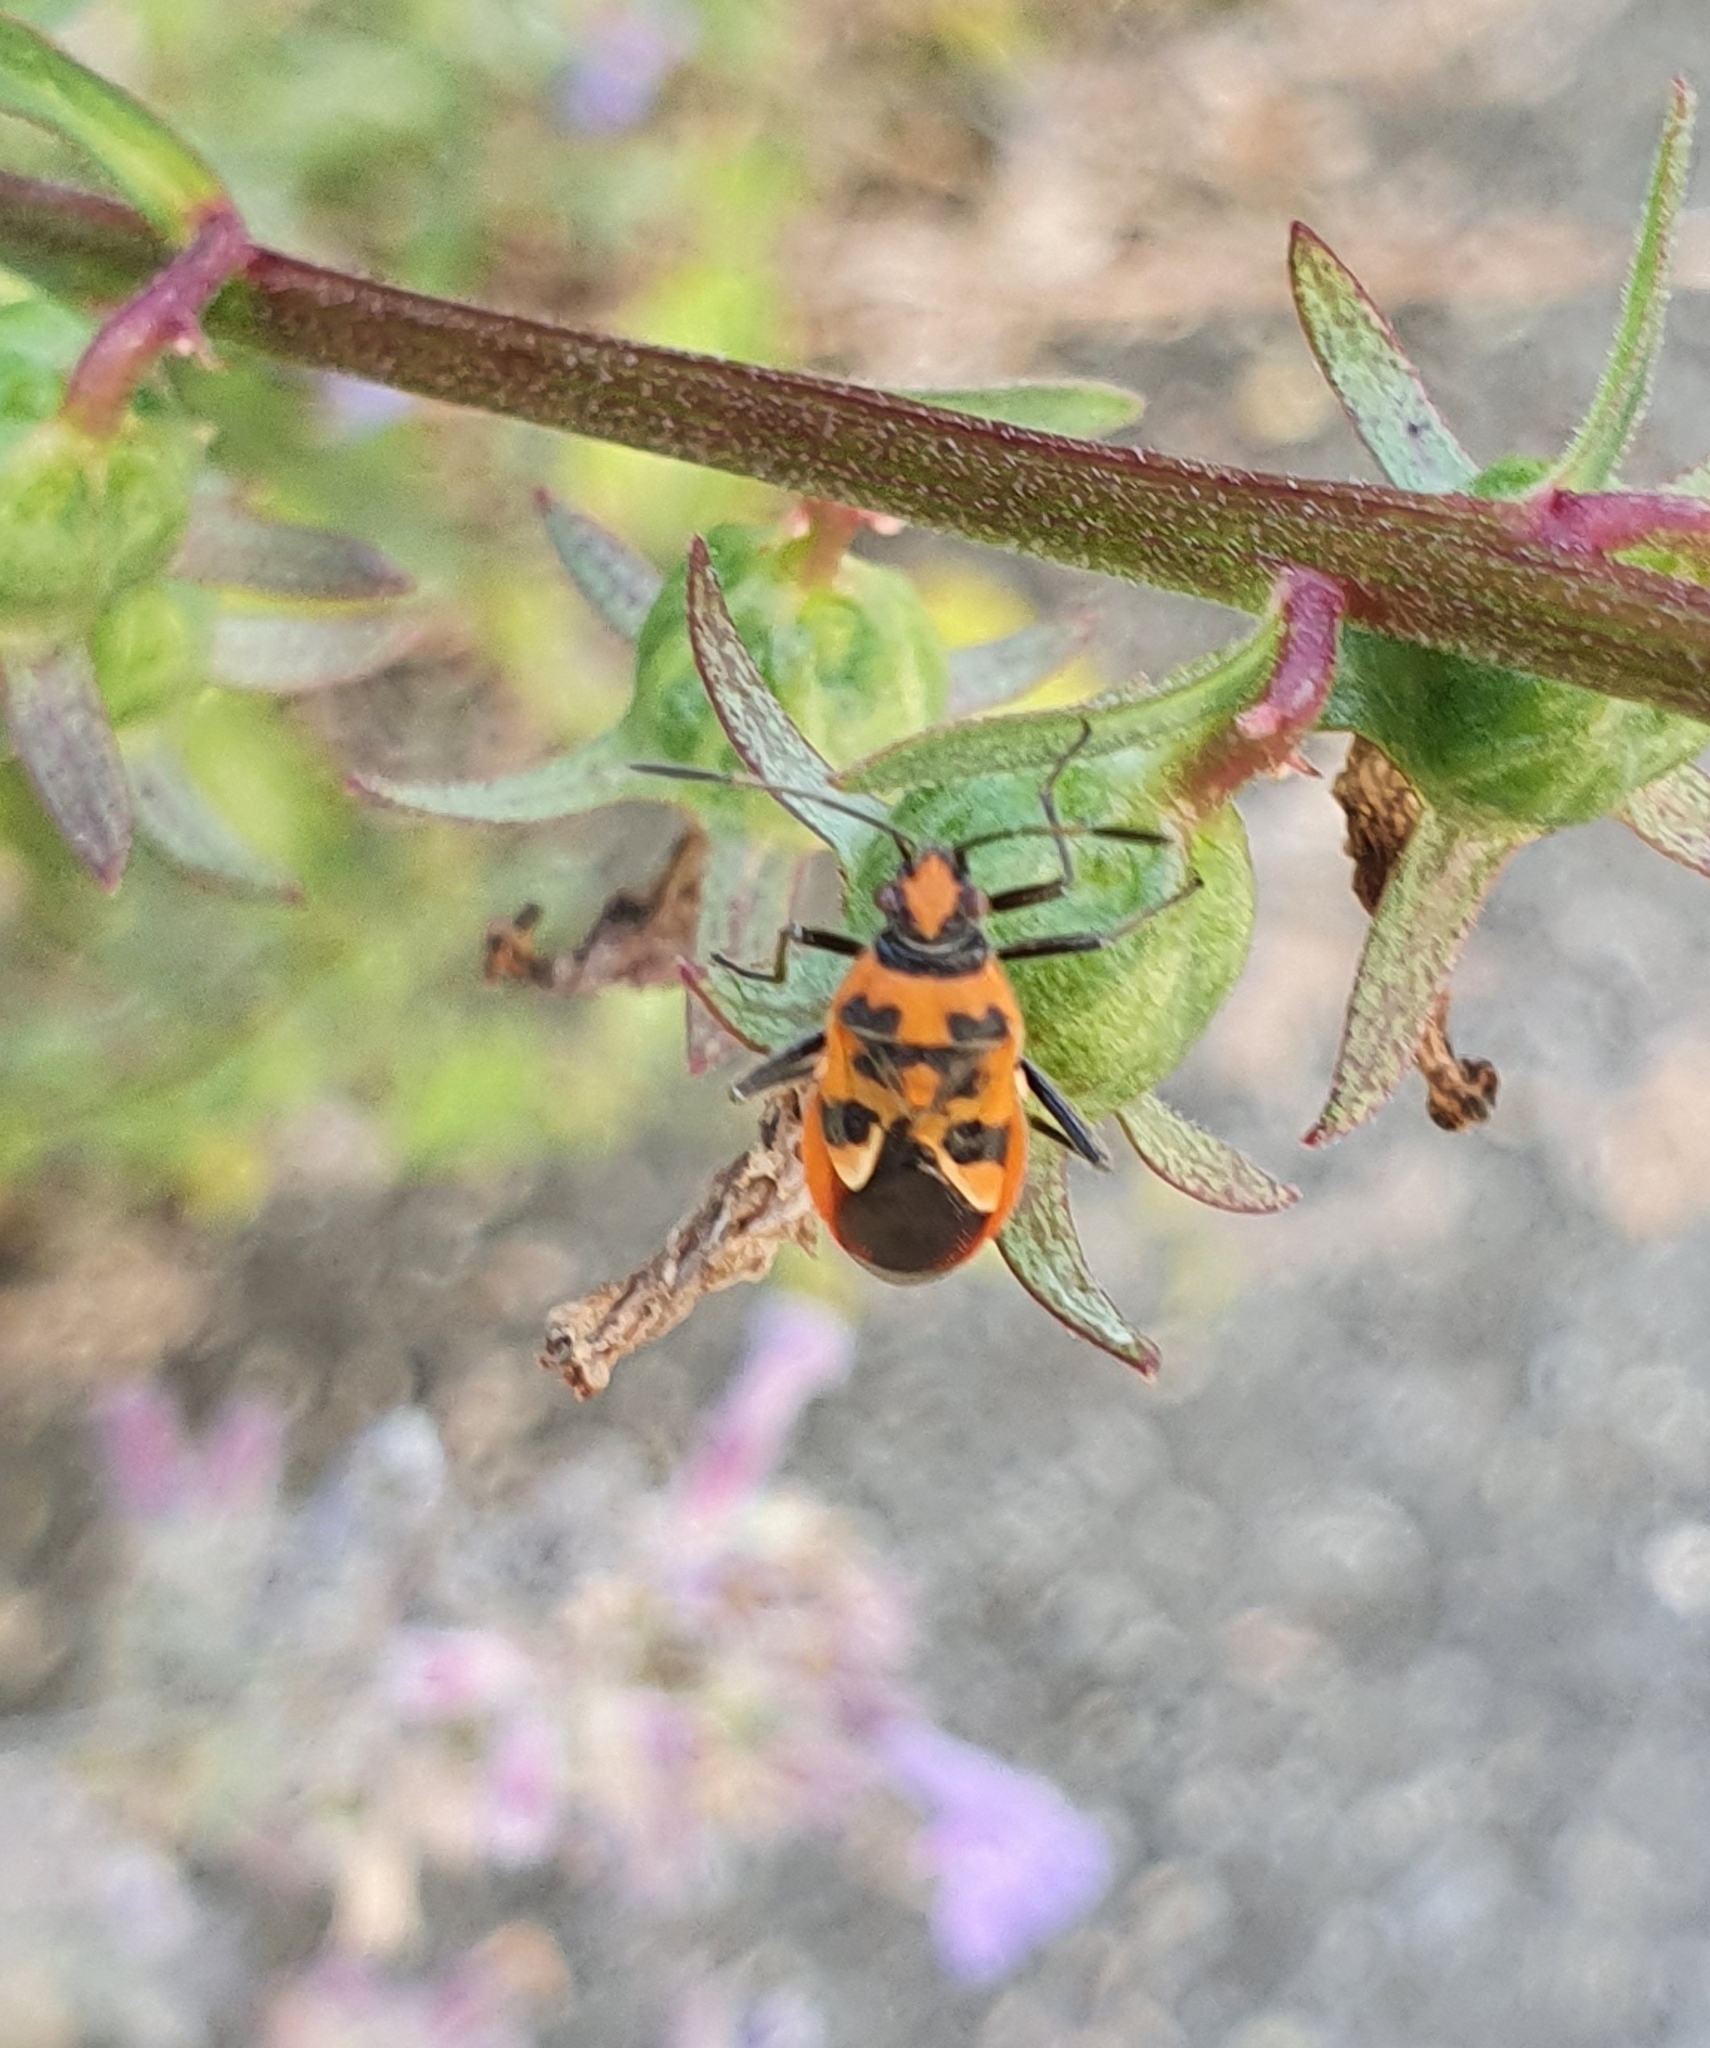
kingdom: Animalia
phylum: Arthropoda
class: Insecta
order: Hemiptera
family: Rhopalidae
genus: Corizus
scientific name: Corizus hyoscyami
